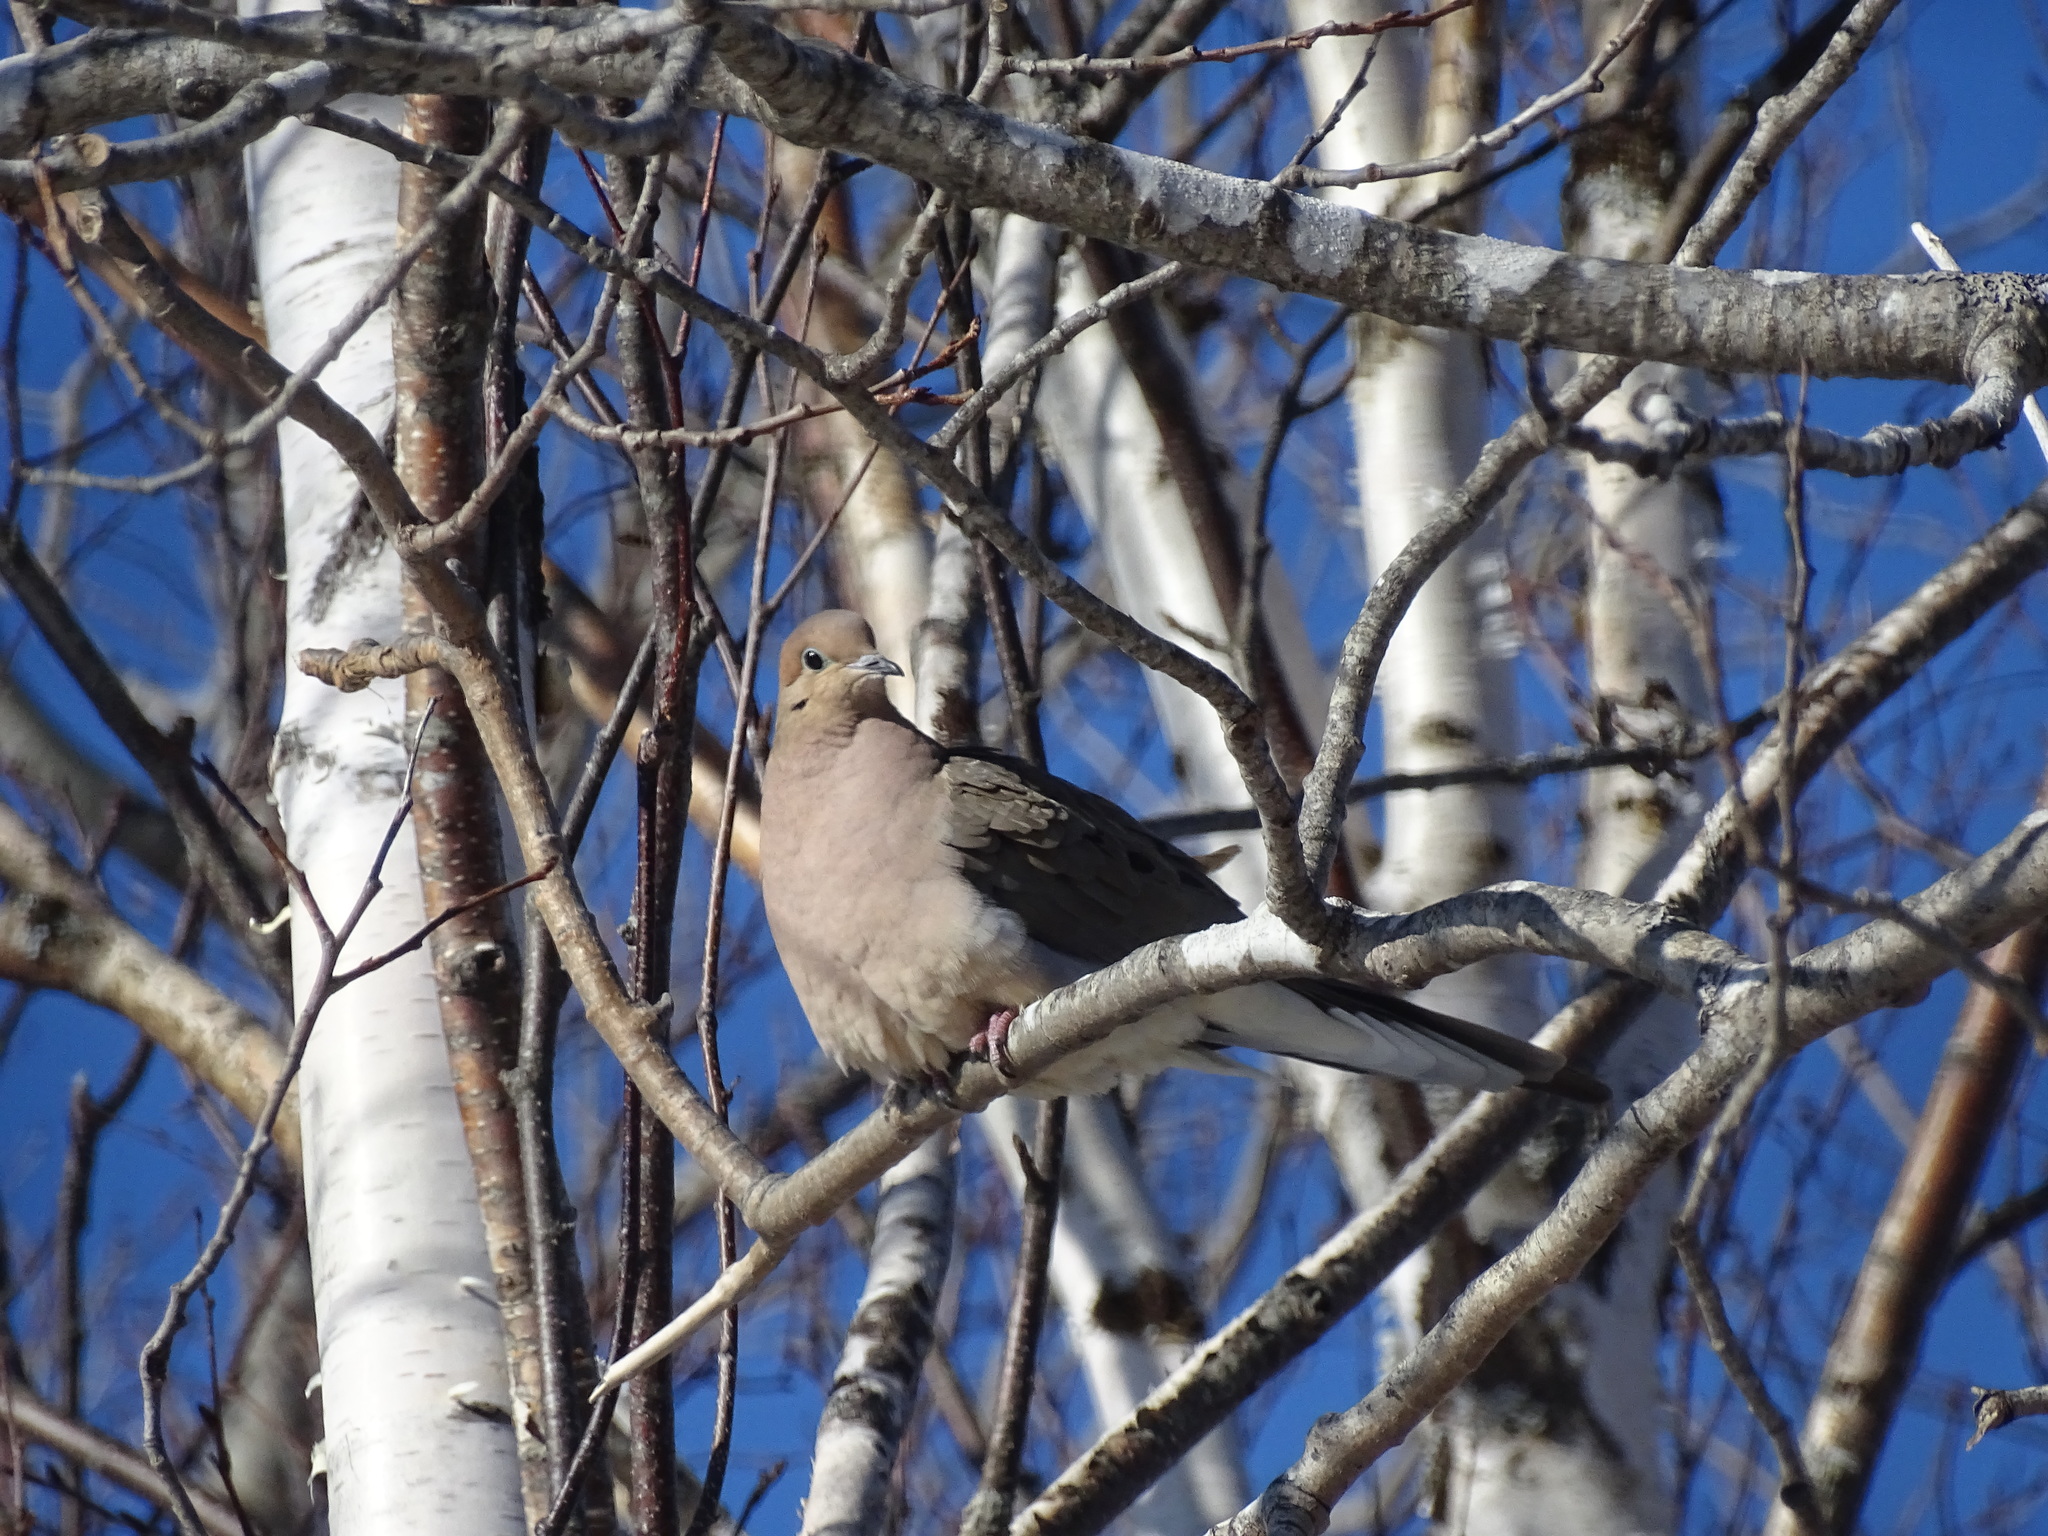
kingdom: Animalia
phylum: Chordata
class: Aves
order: Columbiformes
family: Columbidae
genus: Zenaida
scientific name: Zenaida macroura
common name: Mourning dove
